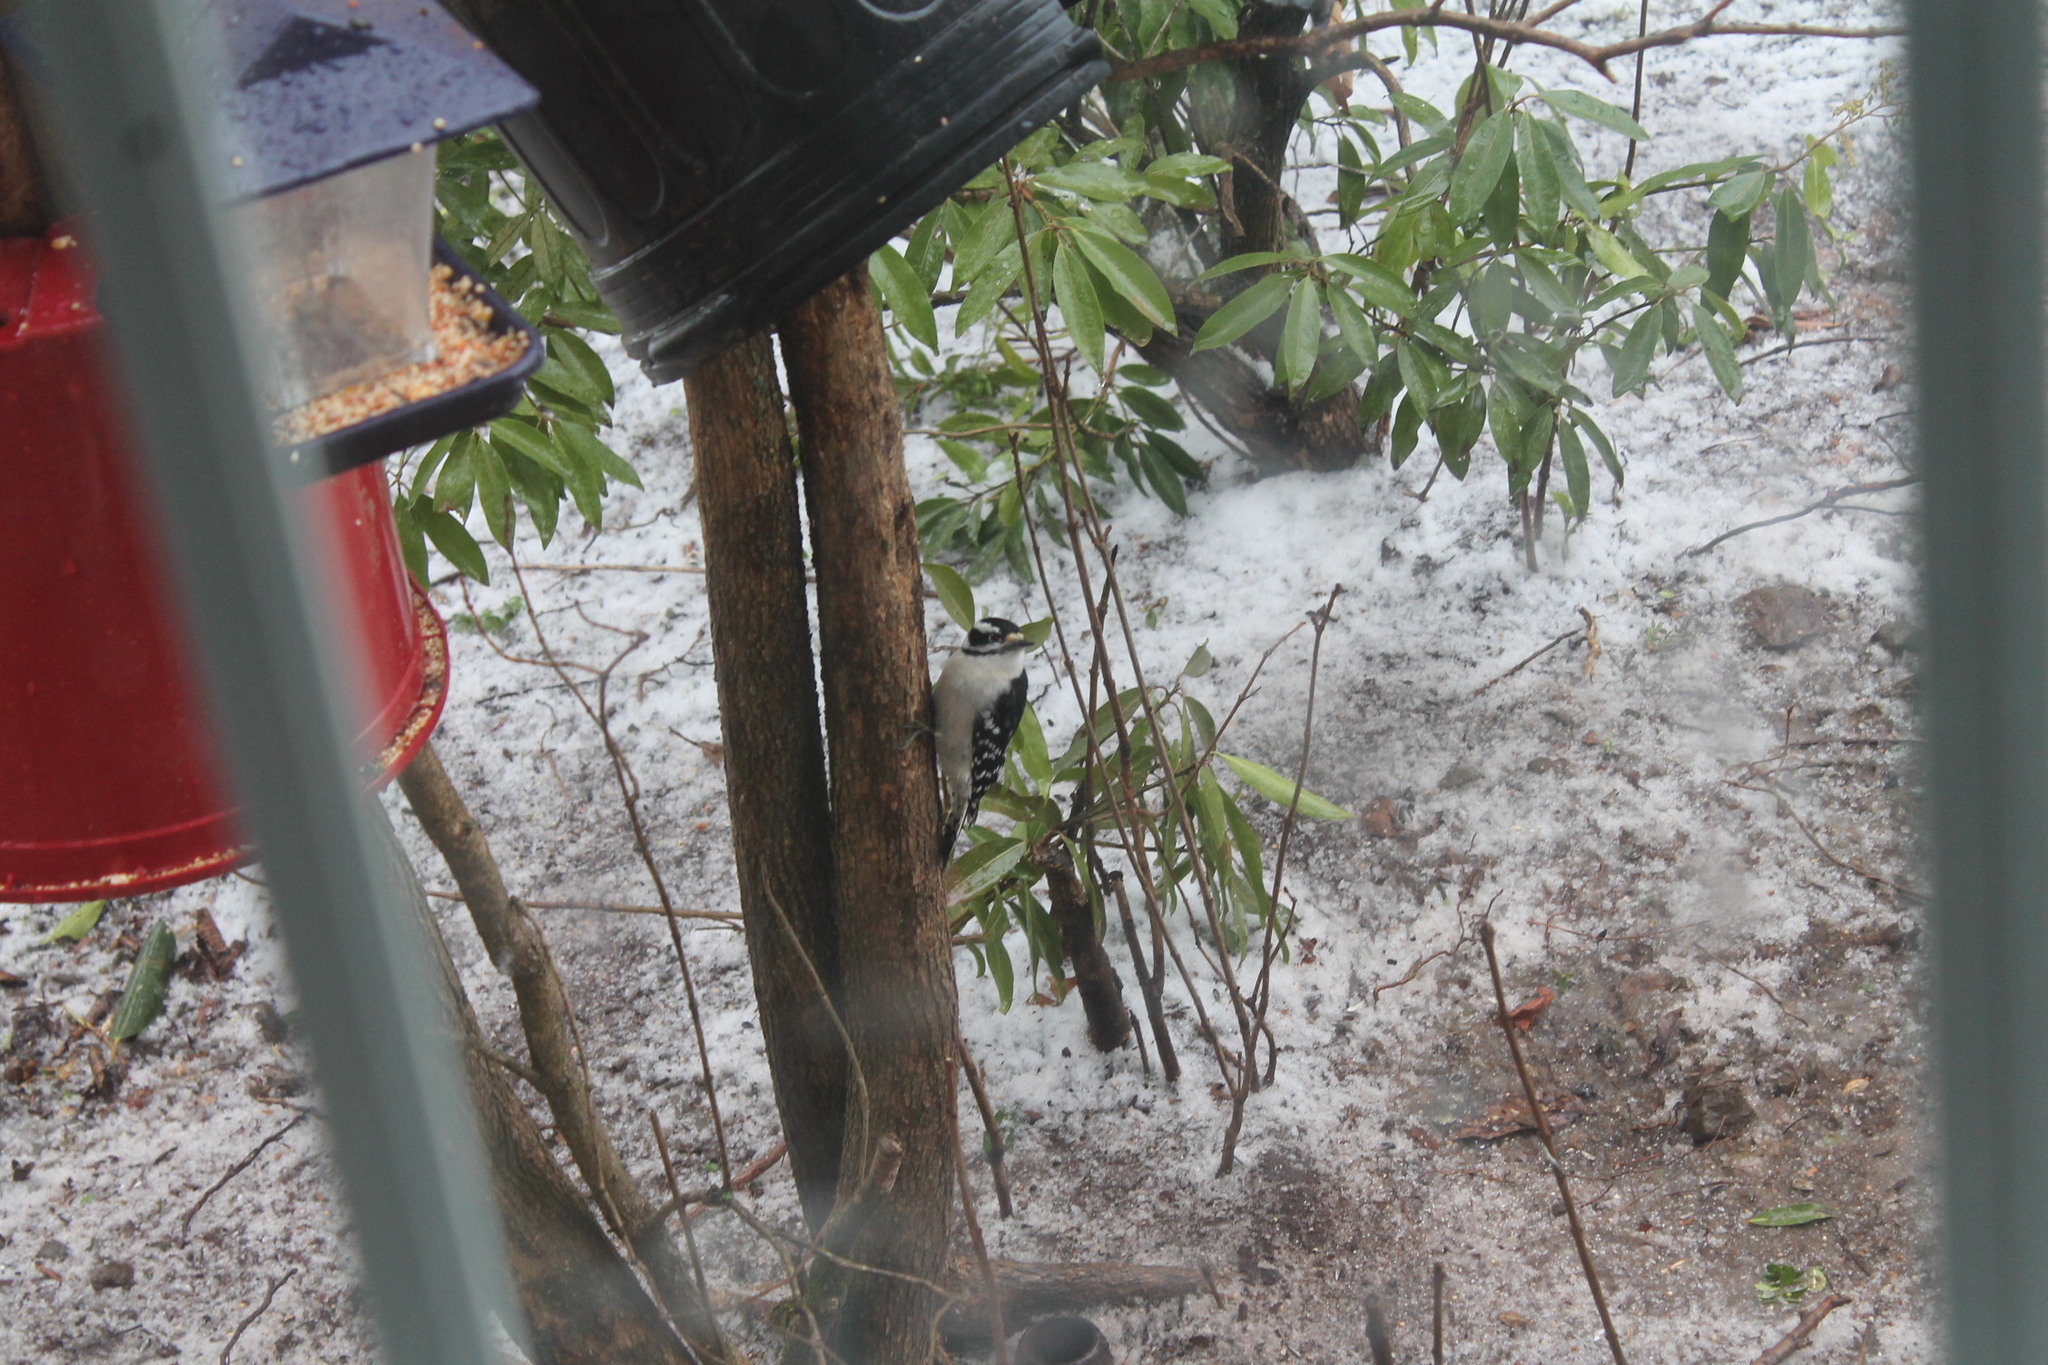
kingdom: Animalia
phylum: Chordata
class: Aves
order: Piciformes
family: Picidae
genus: Dryobates
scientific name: Dryobates pubescens
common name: Downy woodpecker
